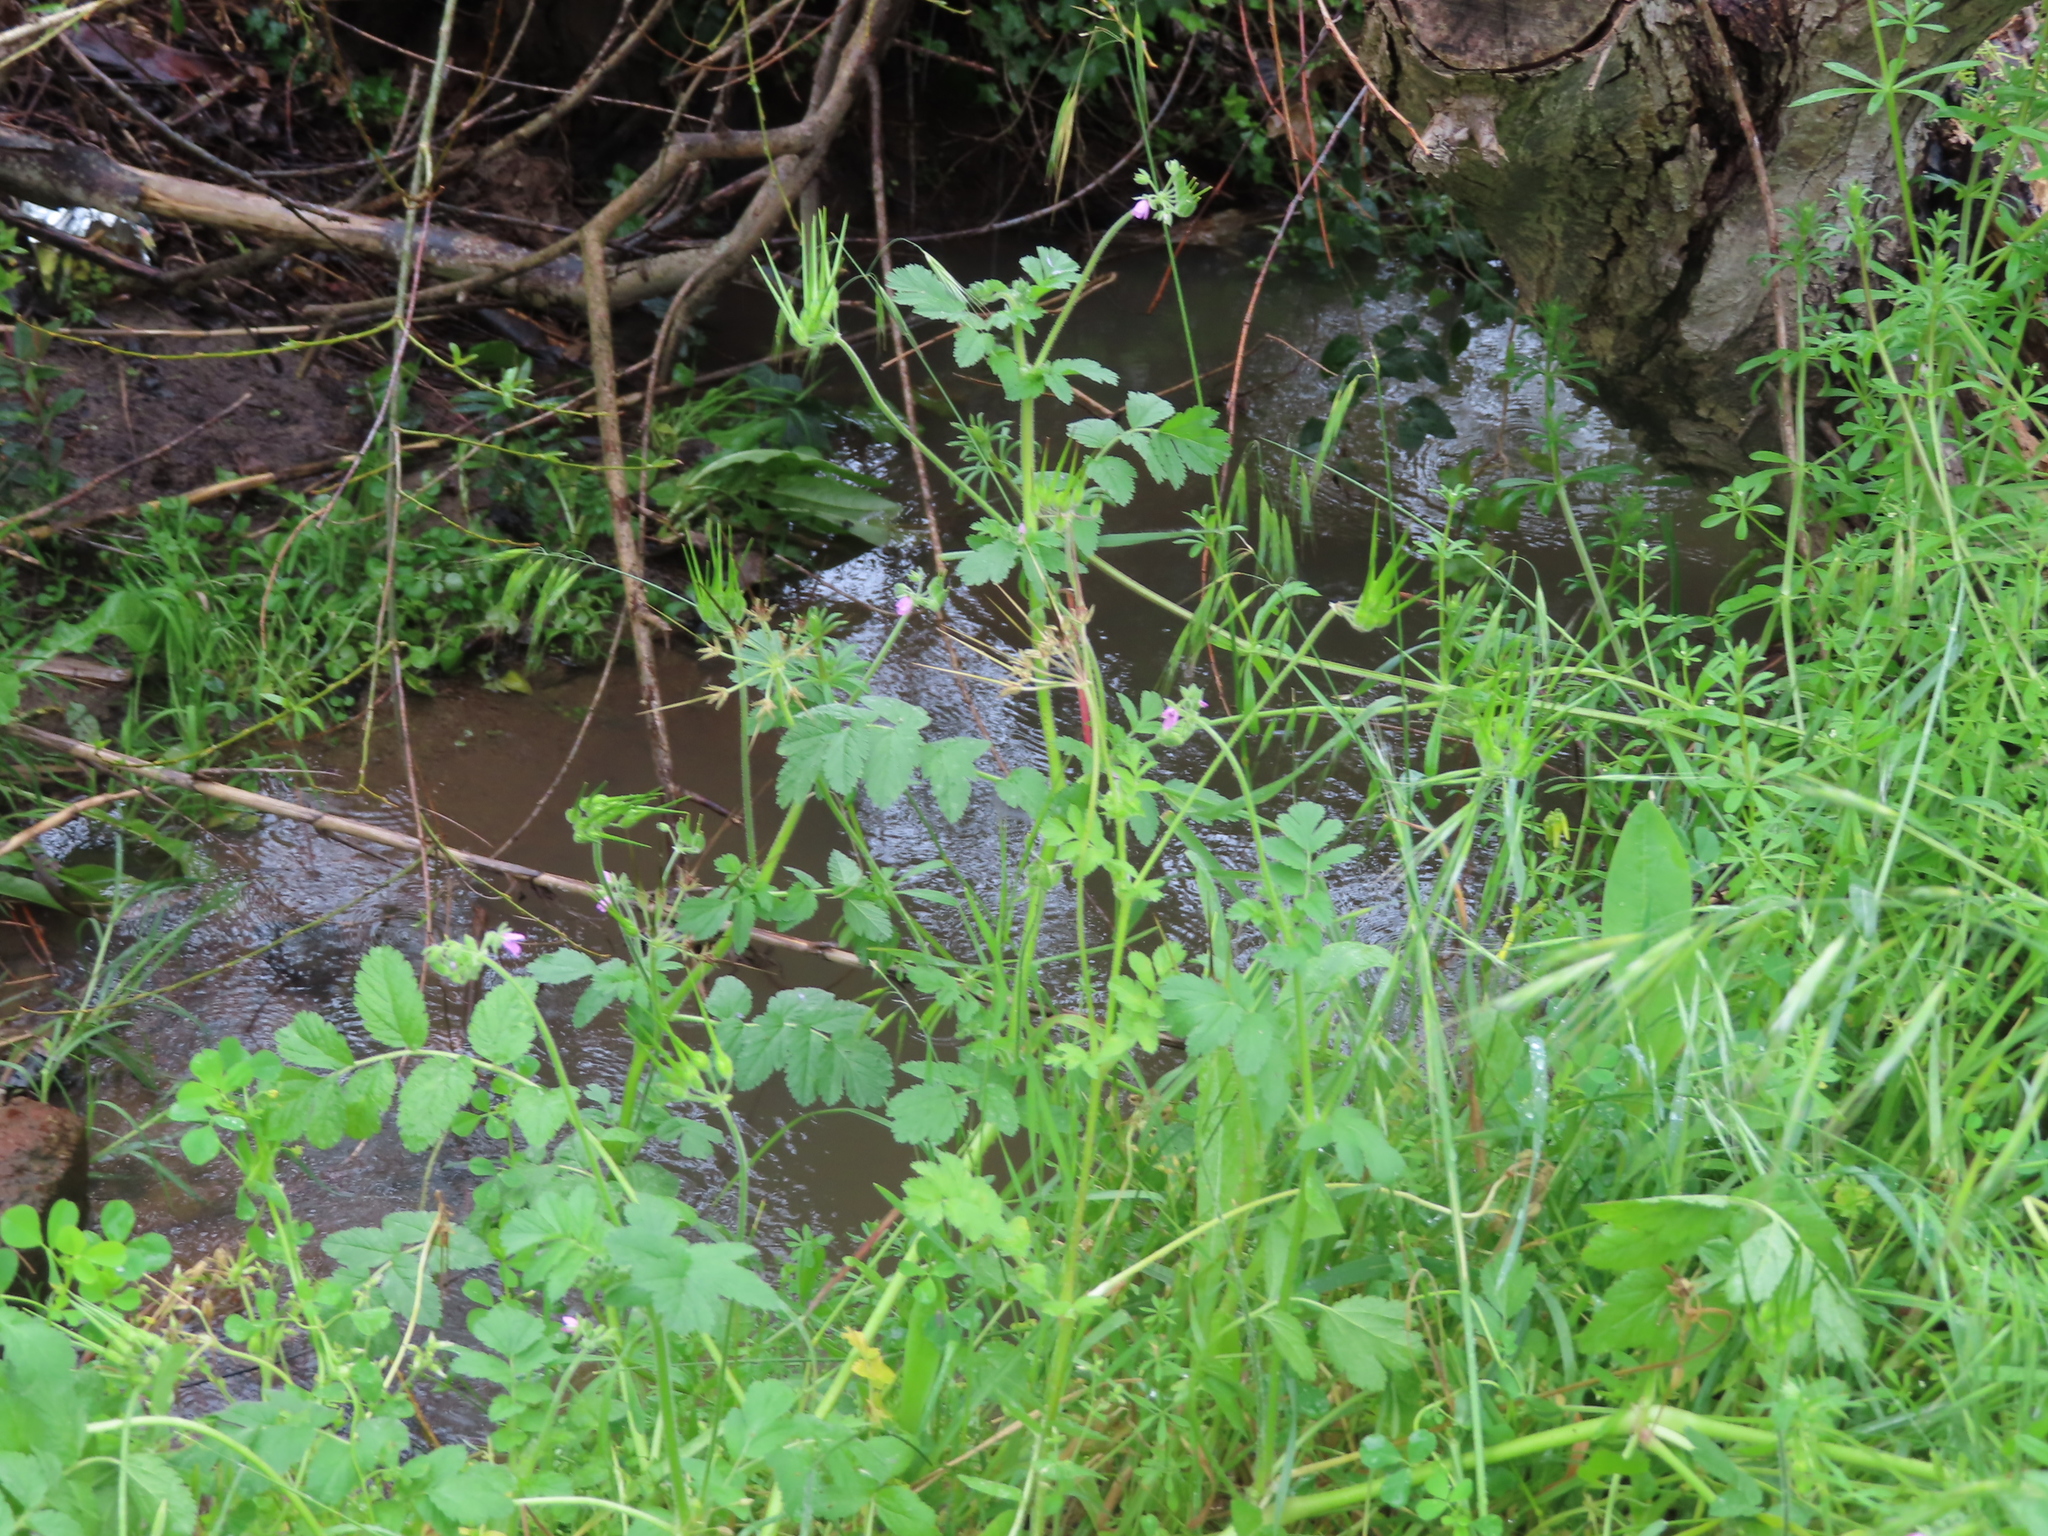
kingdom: Plantae
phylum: Tracheophyta
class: Magnoliopsida
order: Geraniales
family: Geraniaceae
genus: Erodium
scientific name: Erodium moschatum
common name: Musk stork's-bill
